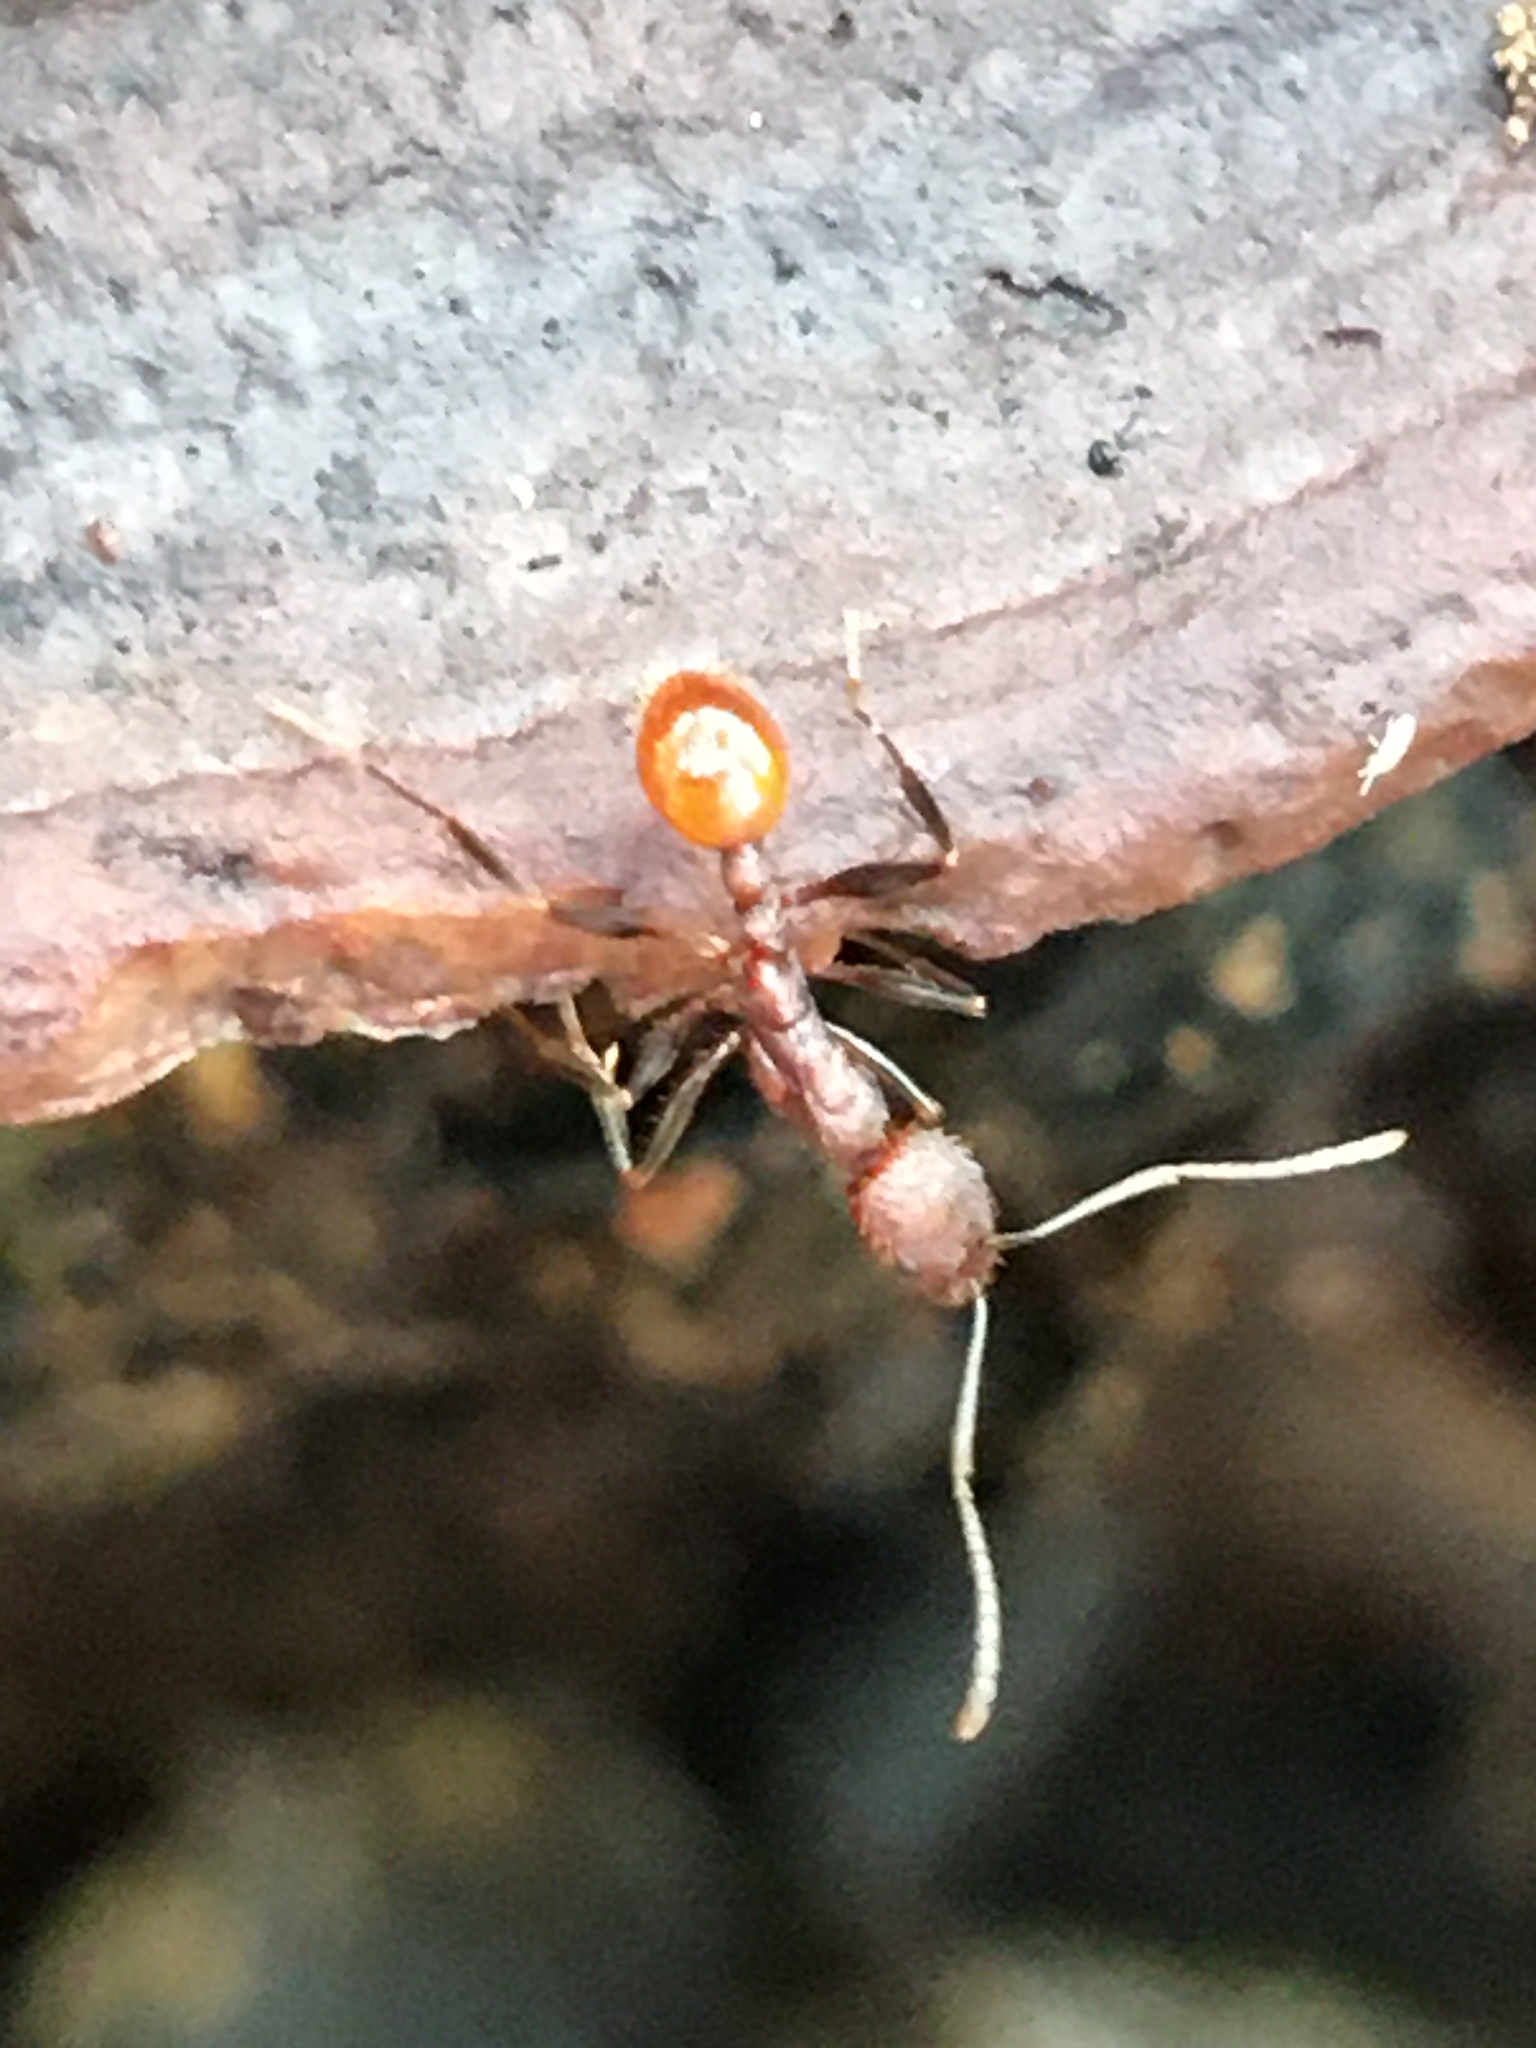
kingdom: Animalia
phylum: Arthropoda
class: Insecta
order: Hymenoptera
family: Formicidae
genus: Aphaenogaster
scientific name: Aphaenogaster lamellidens
